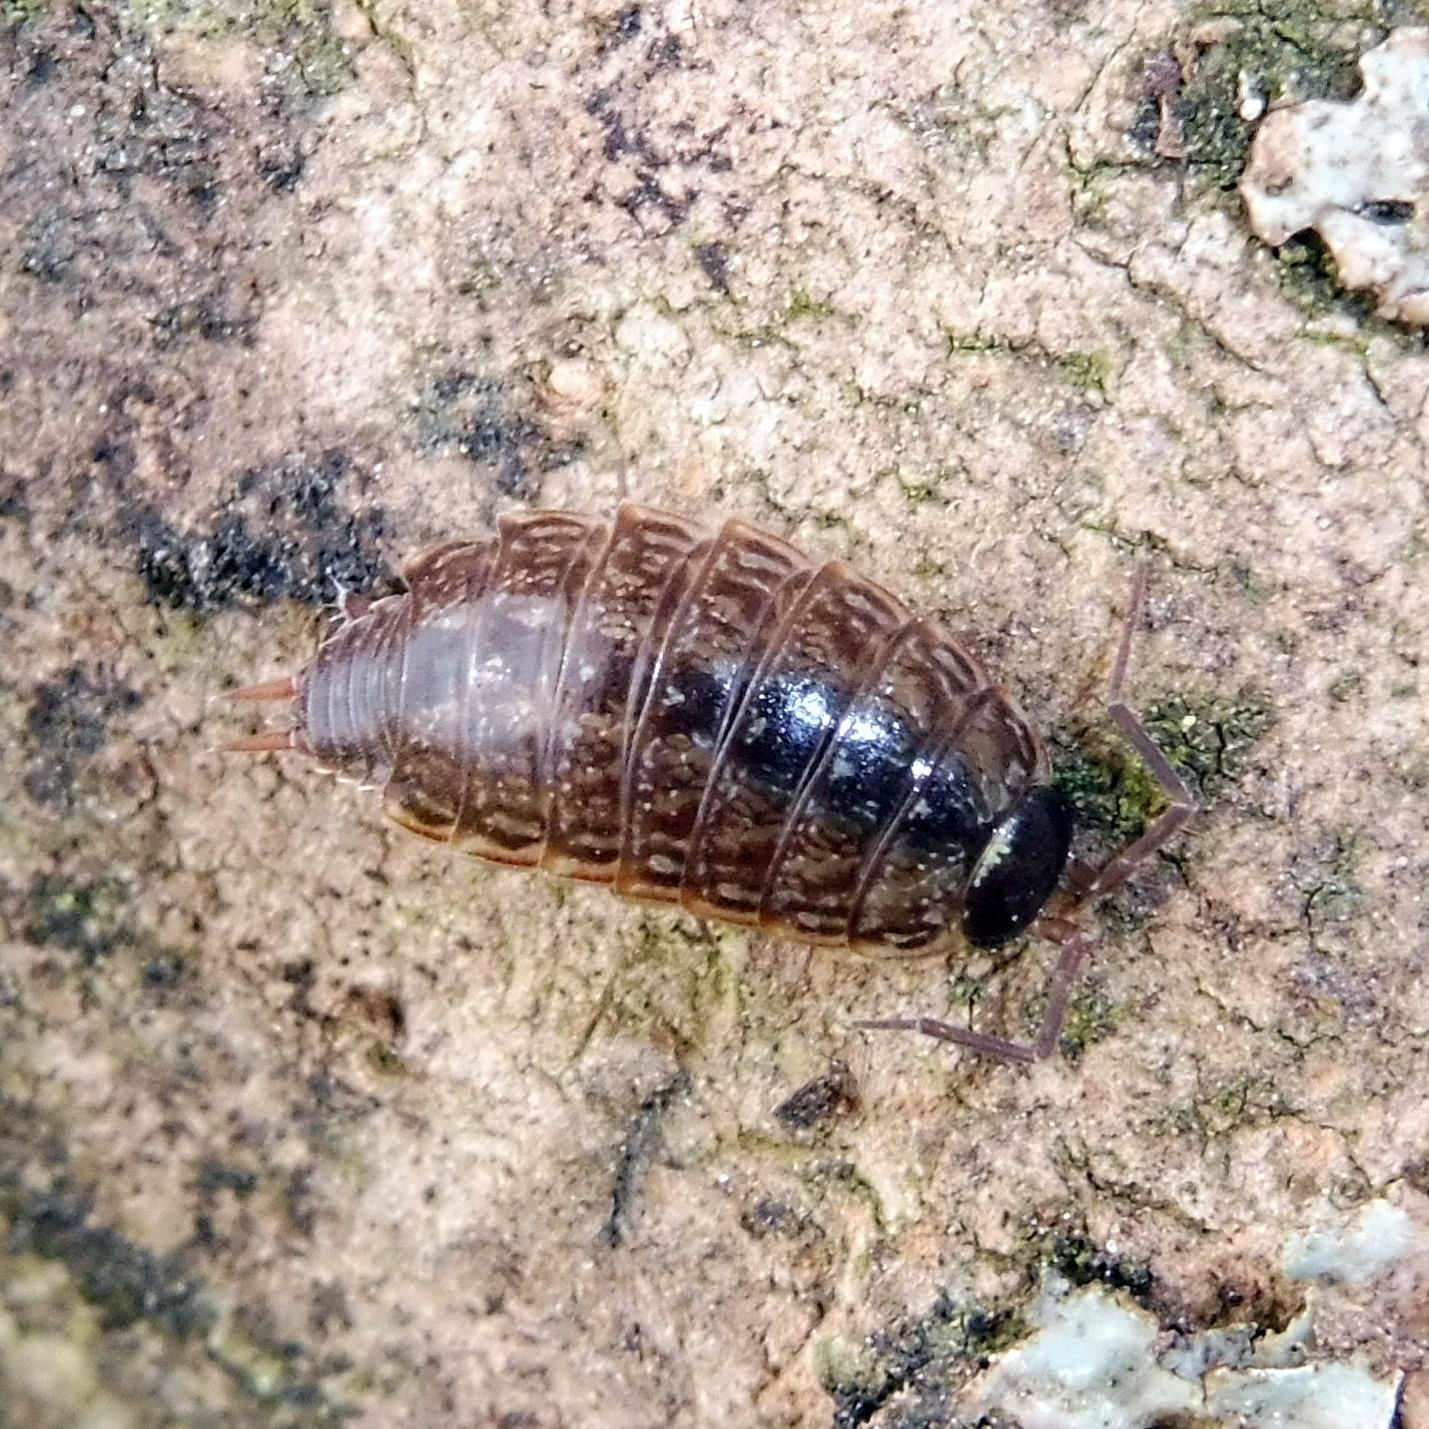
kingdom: Animalia
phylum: Arthropoda
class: Malacostraca
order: Isopoda
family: Philosciidae
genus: Philoscia
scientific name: Philoscia muscorum
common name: Common striped woodlouse
